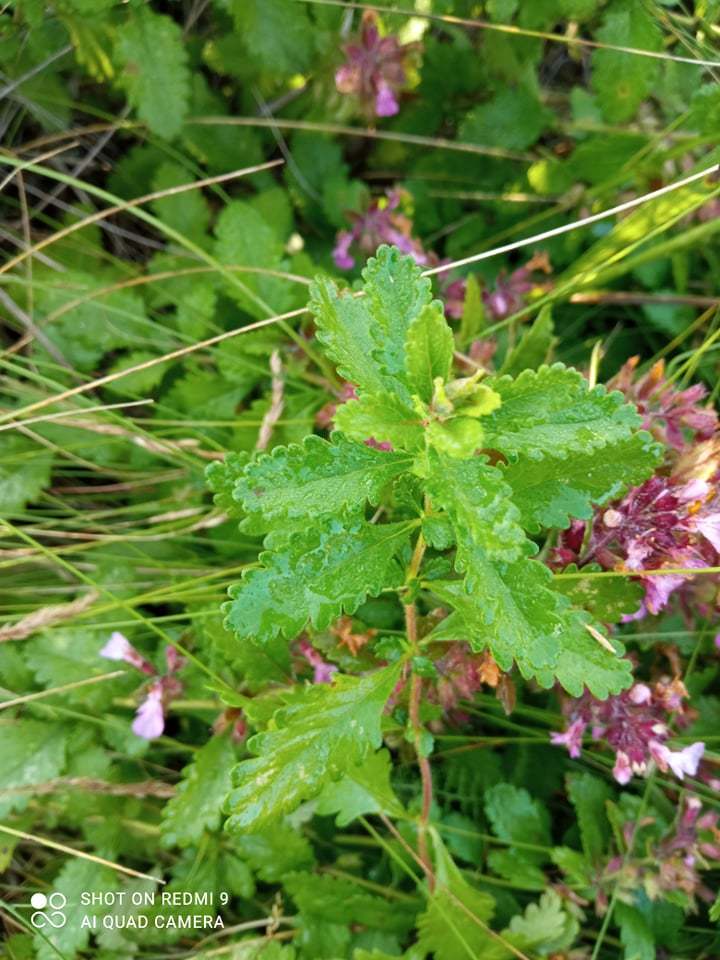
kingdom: Plantae
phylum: Tracheophyta
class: Magnoliopsida
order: Lamiales
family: Lamiaceae
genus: Teucrium
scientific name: Teucrium chamaedrys
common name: Wall germander
